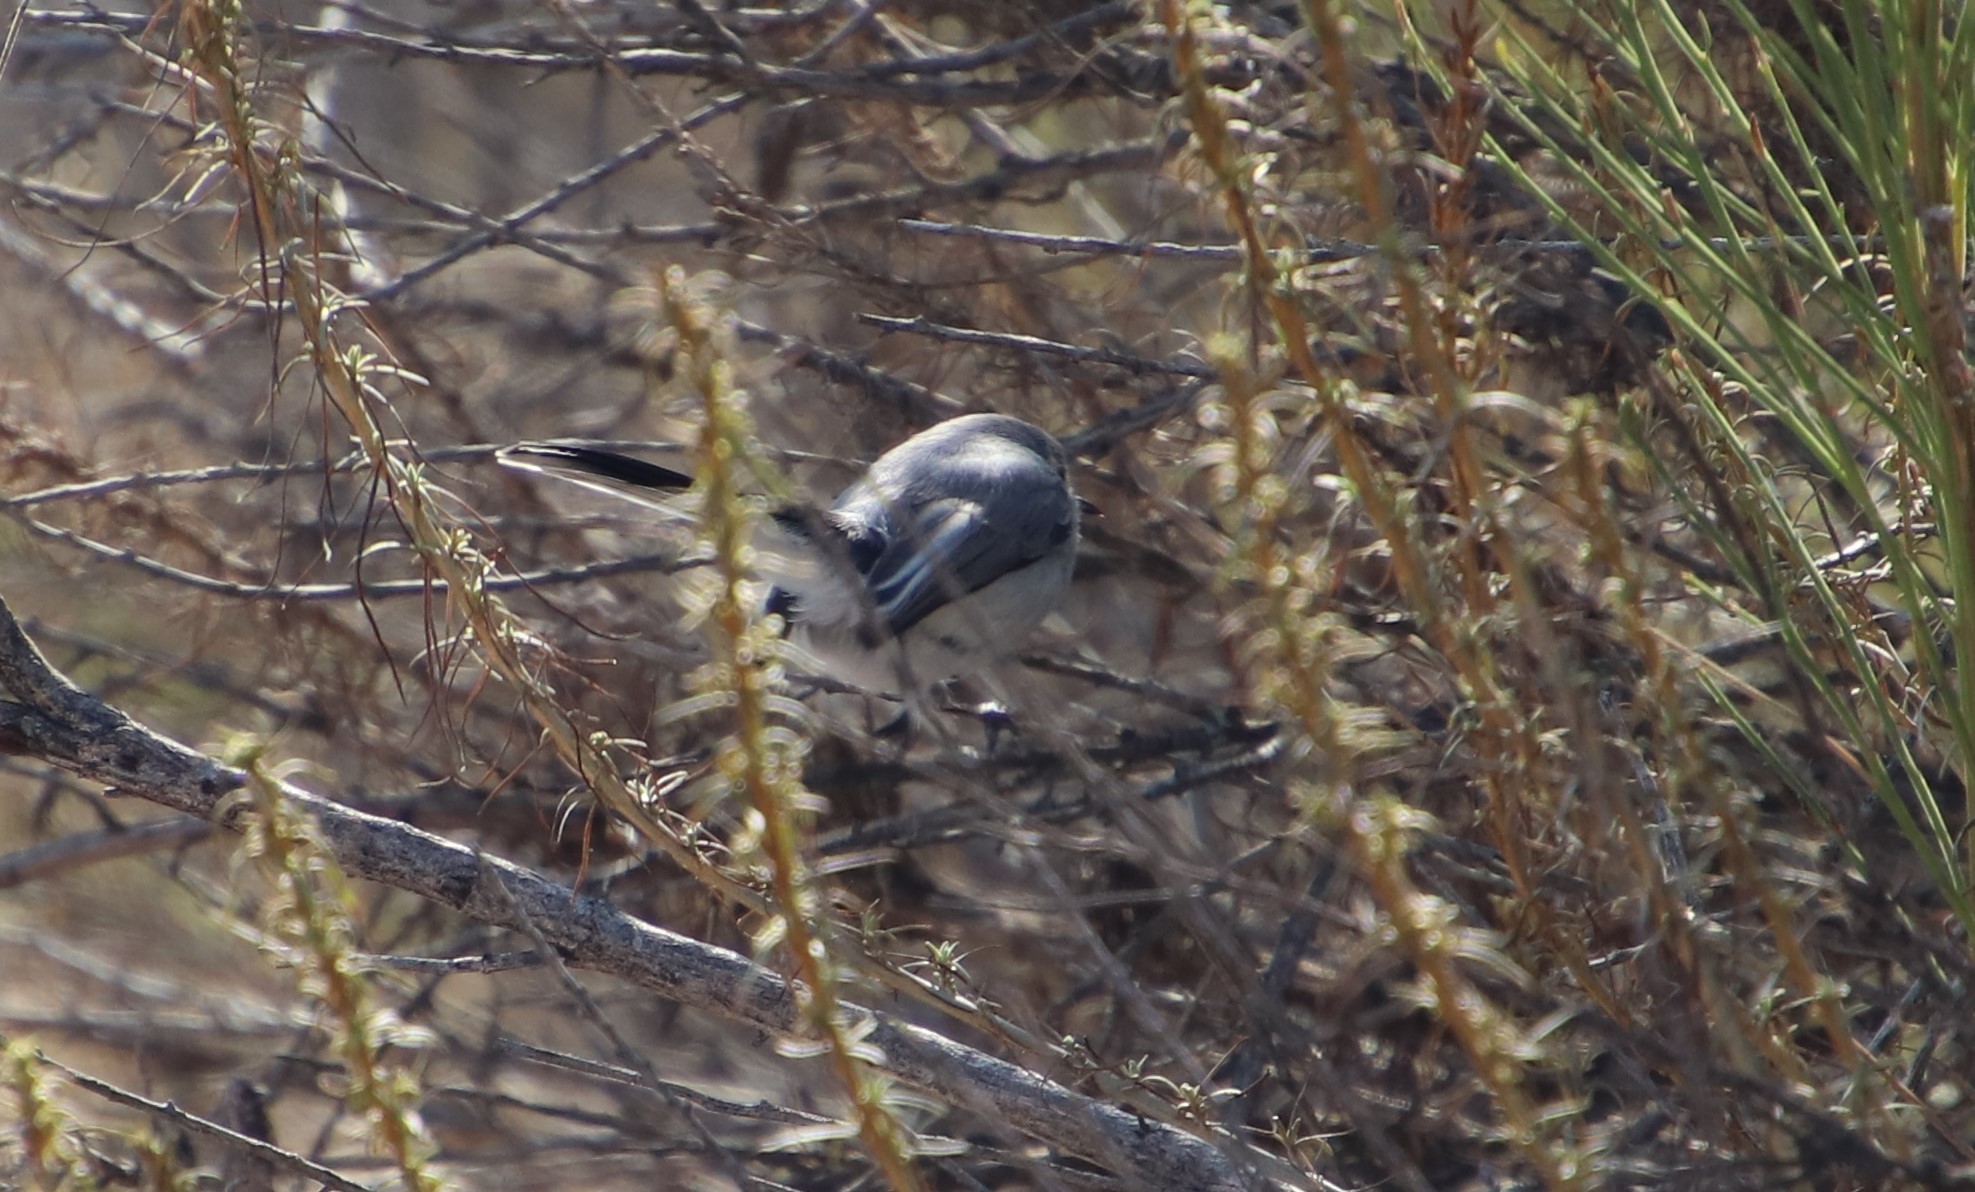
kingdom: Animalia
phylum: Chordata
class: Aves
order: Passeriformes
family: Polioptilidae
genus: Polioptila
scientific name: Polioptila caerulea
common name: Blue-gray gnatcatcher
